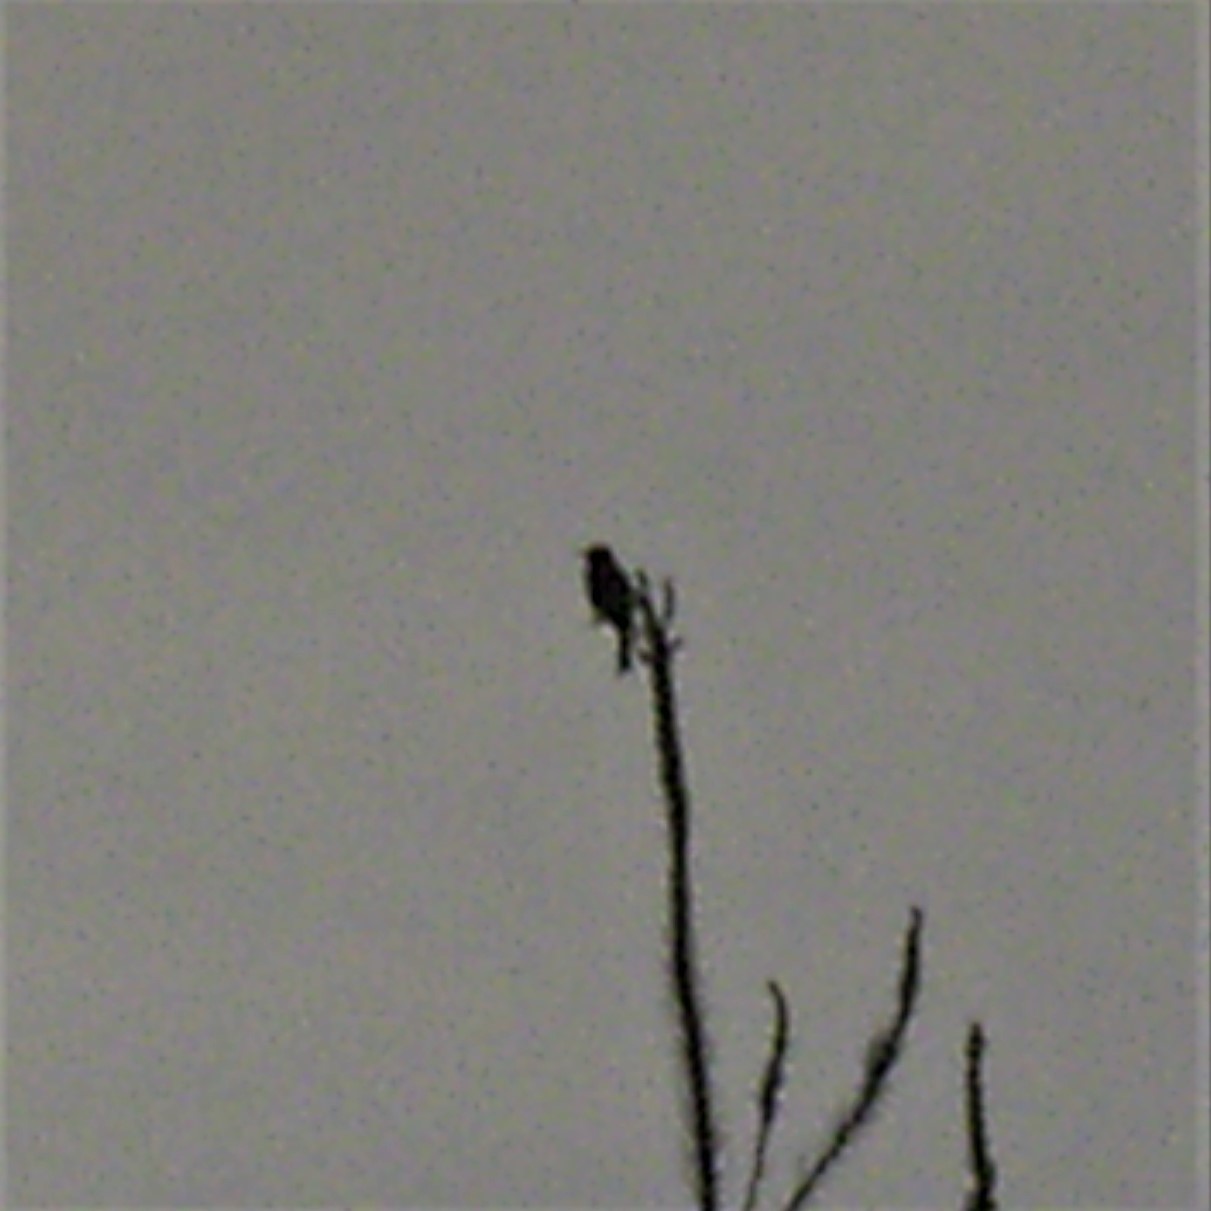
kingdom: Animalia
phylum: Chordata
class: Aves
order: Passeriformes
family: Dicruridae
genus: Dicrurus
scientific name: Dicrurus adsimilis
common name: Fork-tailed drongo
